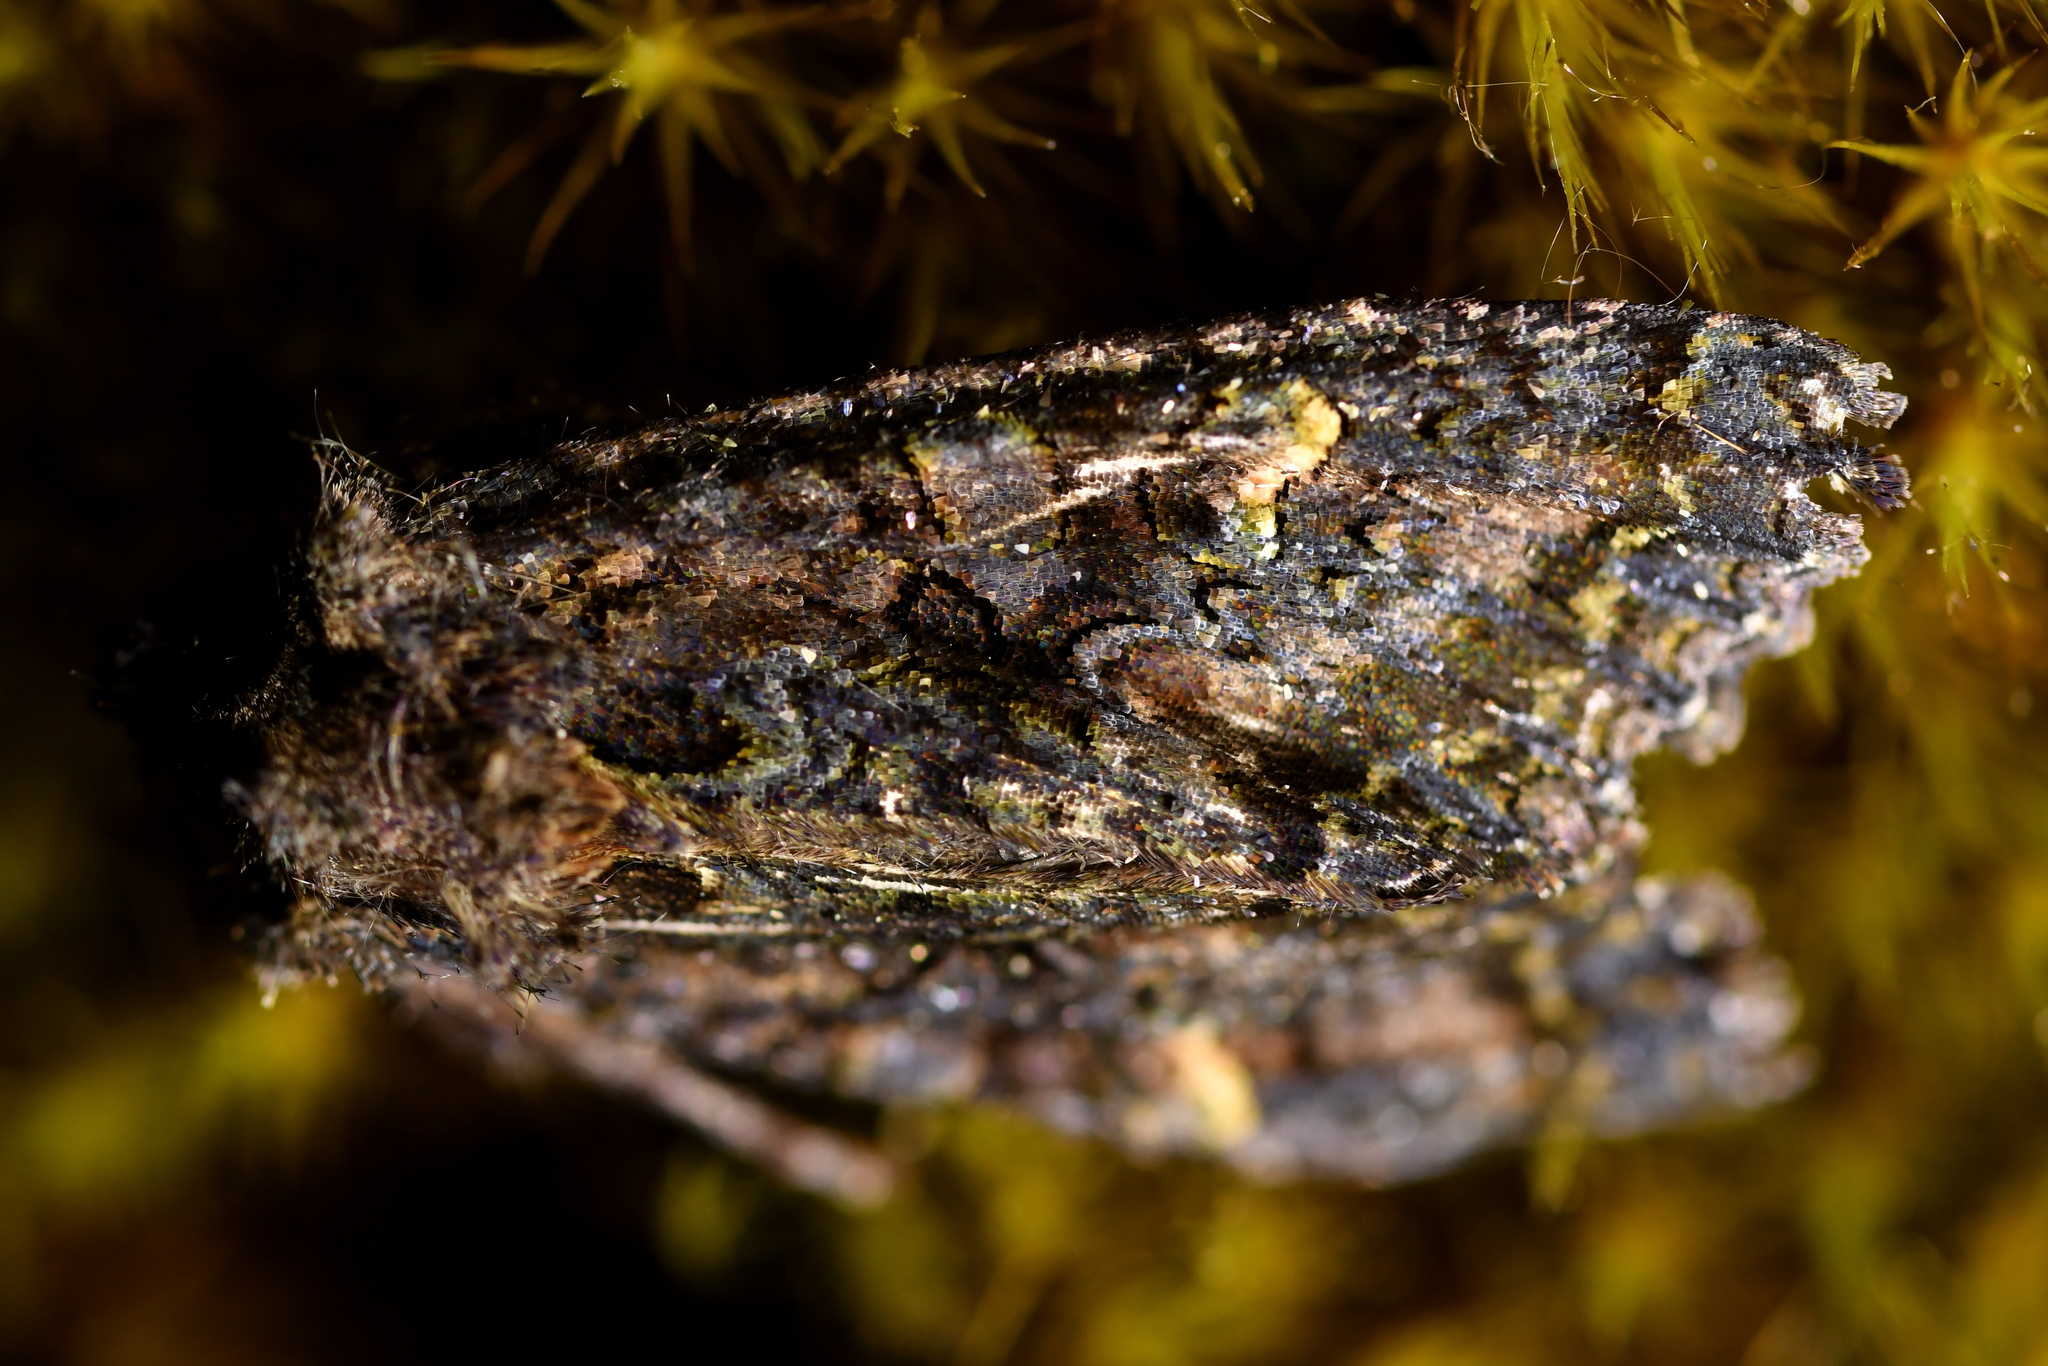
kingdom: Animalia
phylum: Arthropoda
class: Insecta
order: Lepidoptera
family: Noctuidae
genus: Meterana
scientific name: Meterana dotata
